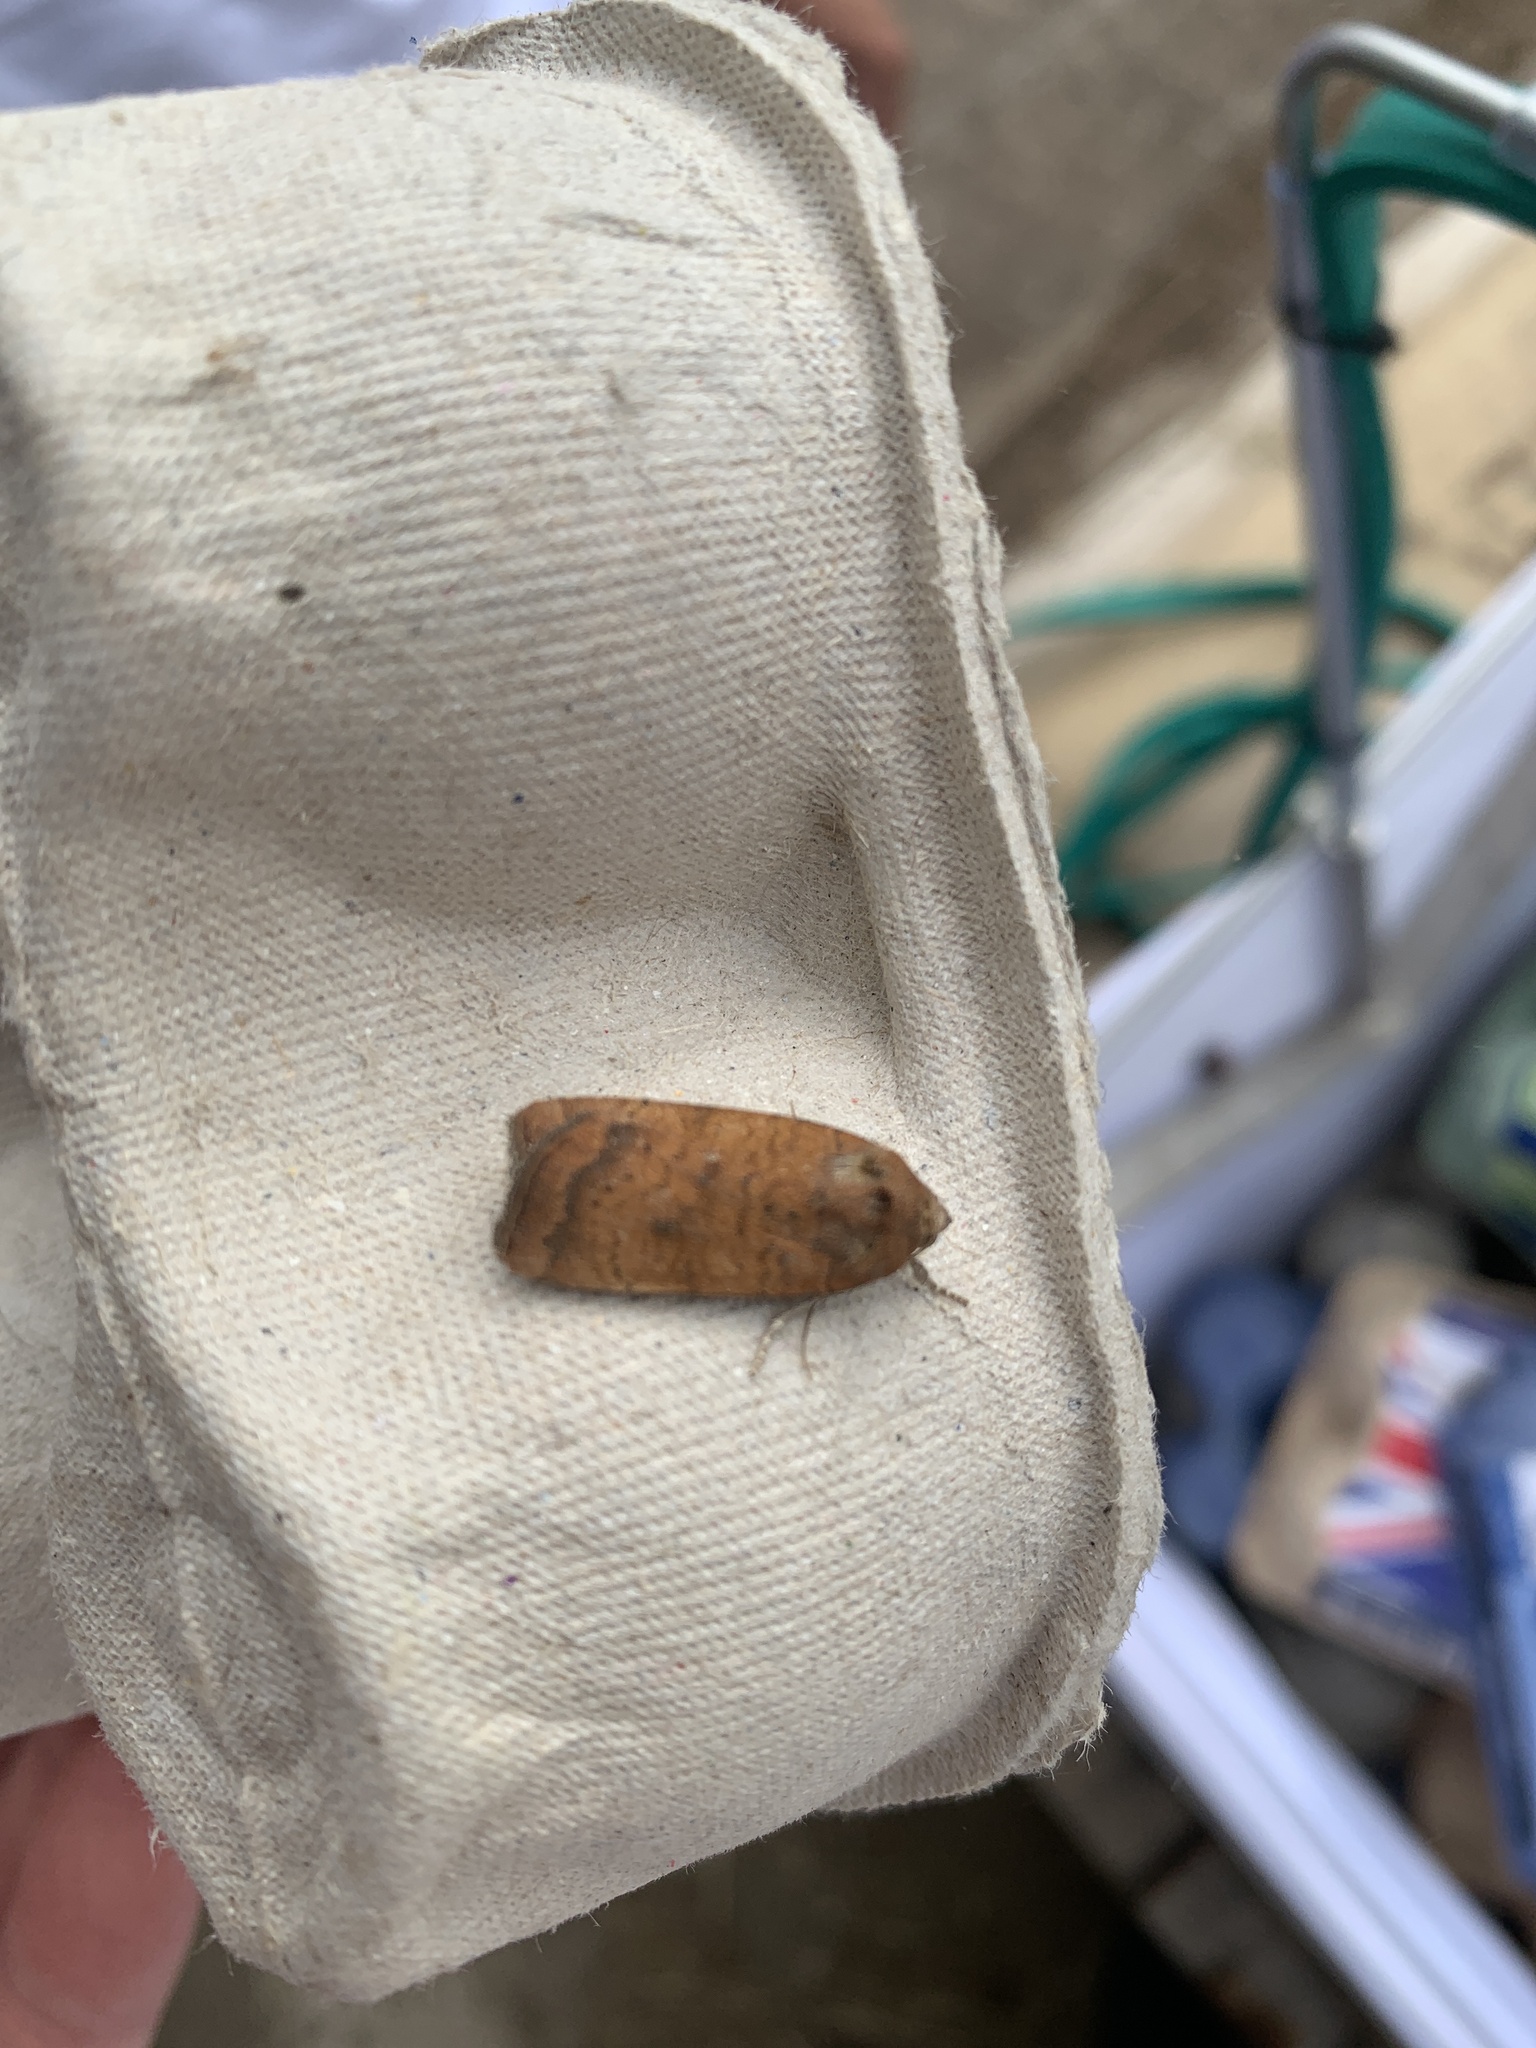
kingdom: Animalia
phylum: Arthropoda
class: Insecta
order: Lepidoptera
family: Noctuidae
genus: Noctua
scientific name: Noctua interjecta
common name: Least yellow underwing
